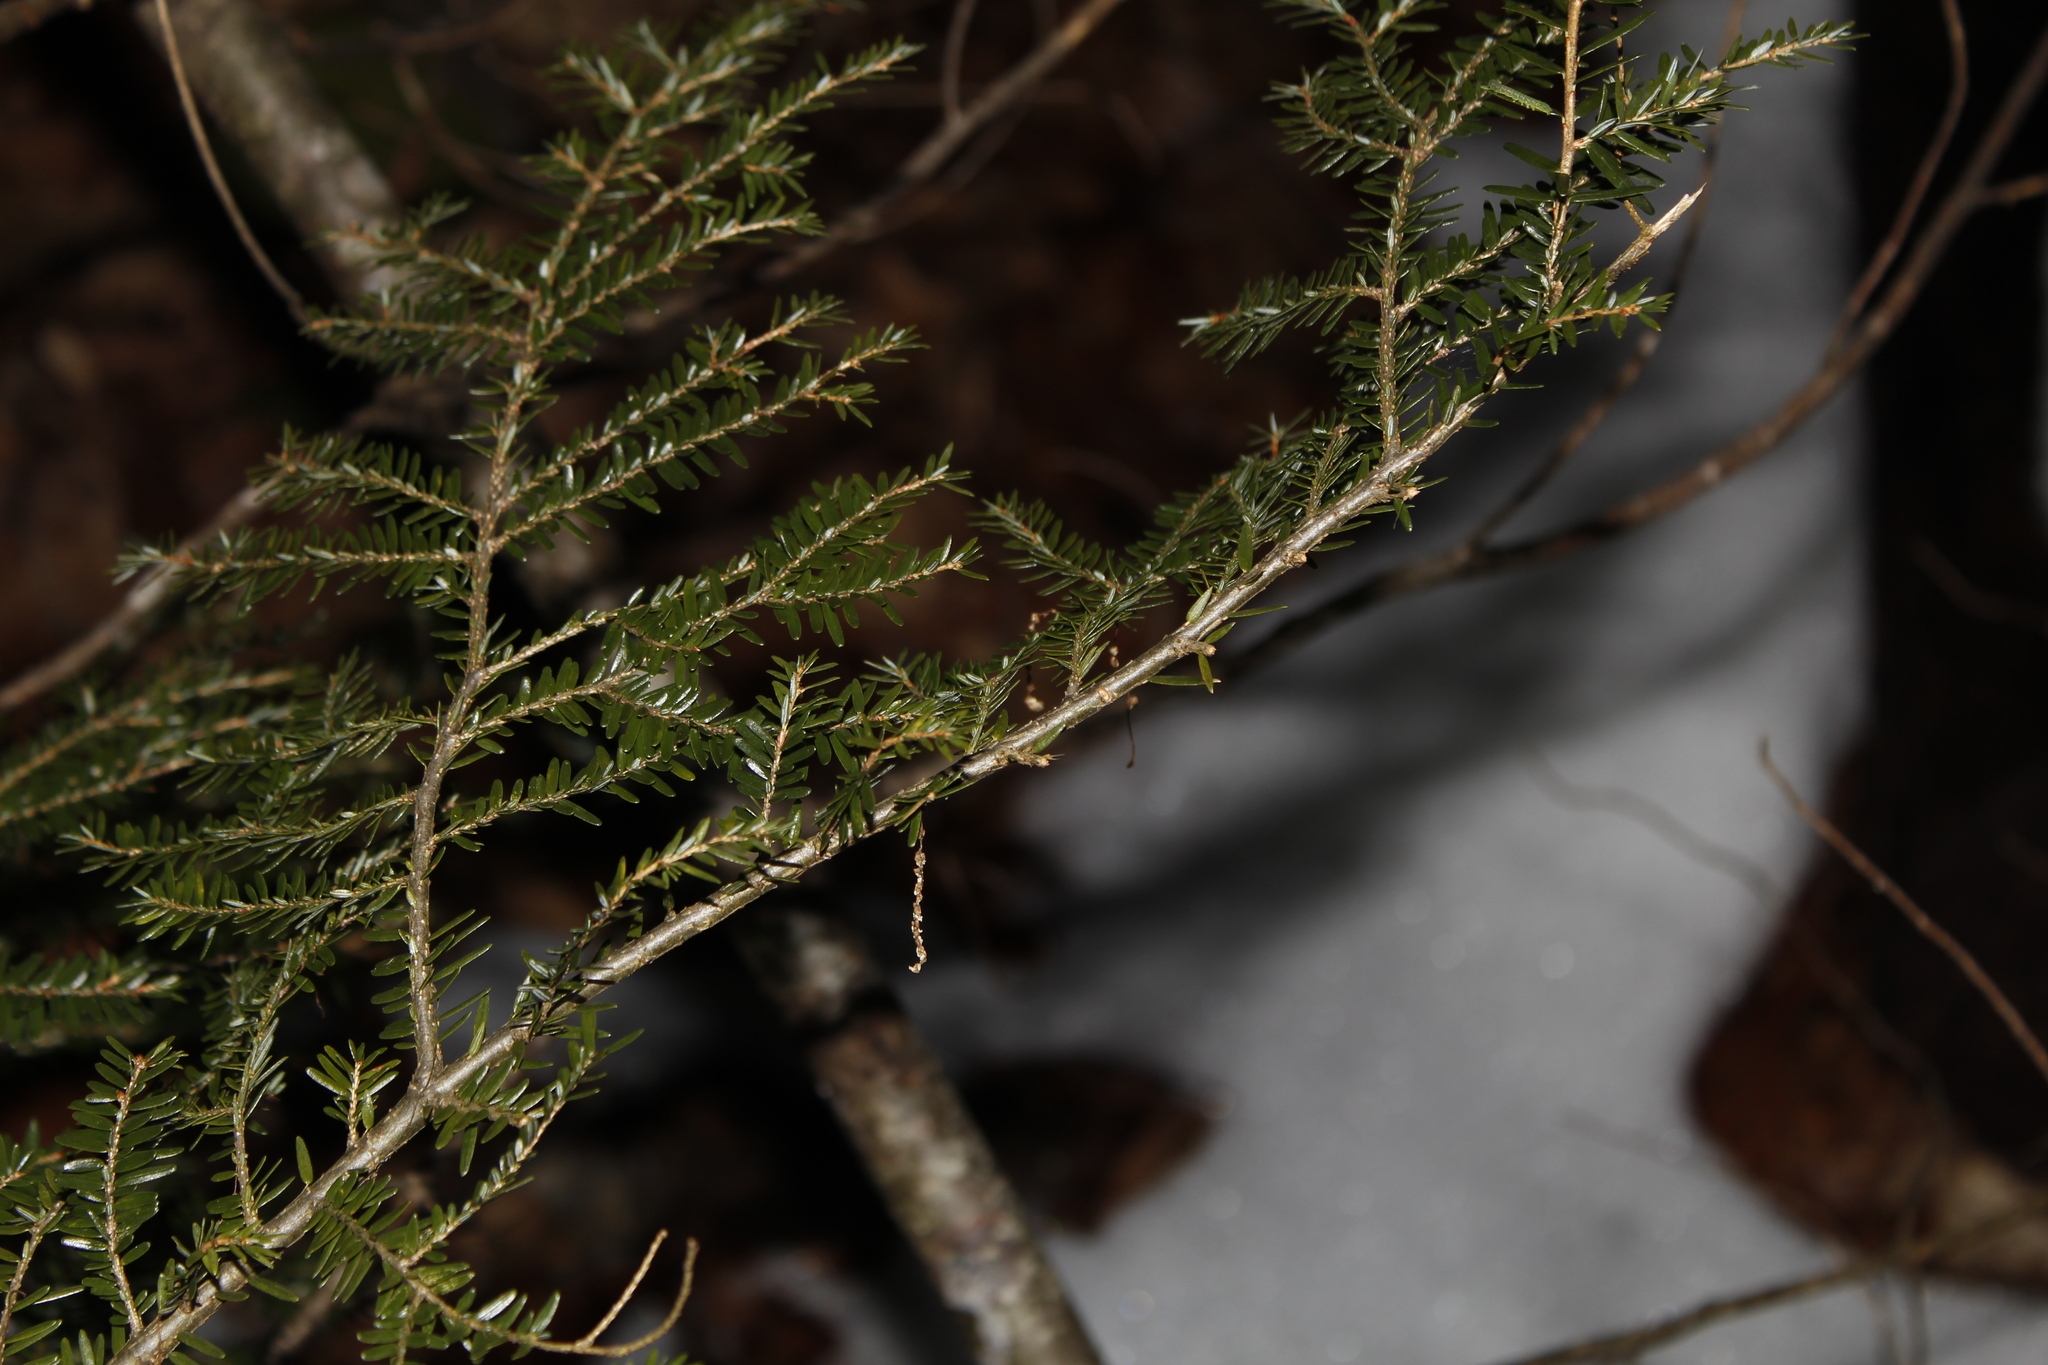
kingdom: Plantae
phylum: Tracheophyta
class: Pinopsida
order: Pinales
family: Pinaceae
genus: Tsuga
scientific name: Tsuga canadensis
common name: Eastern hemlock
